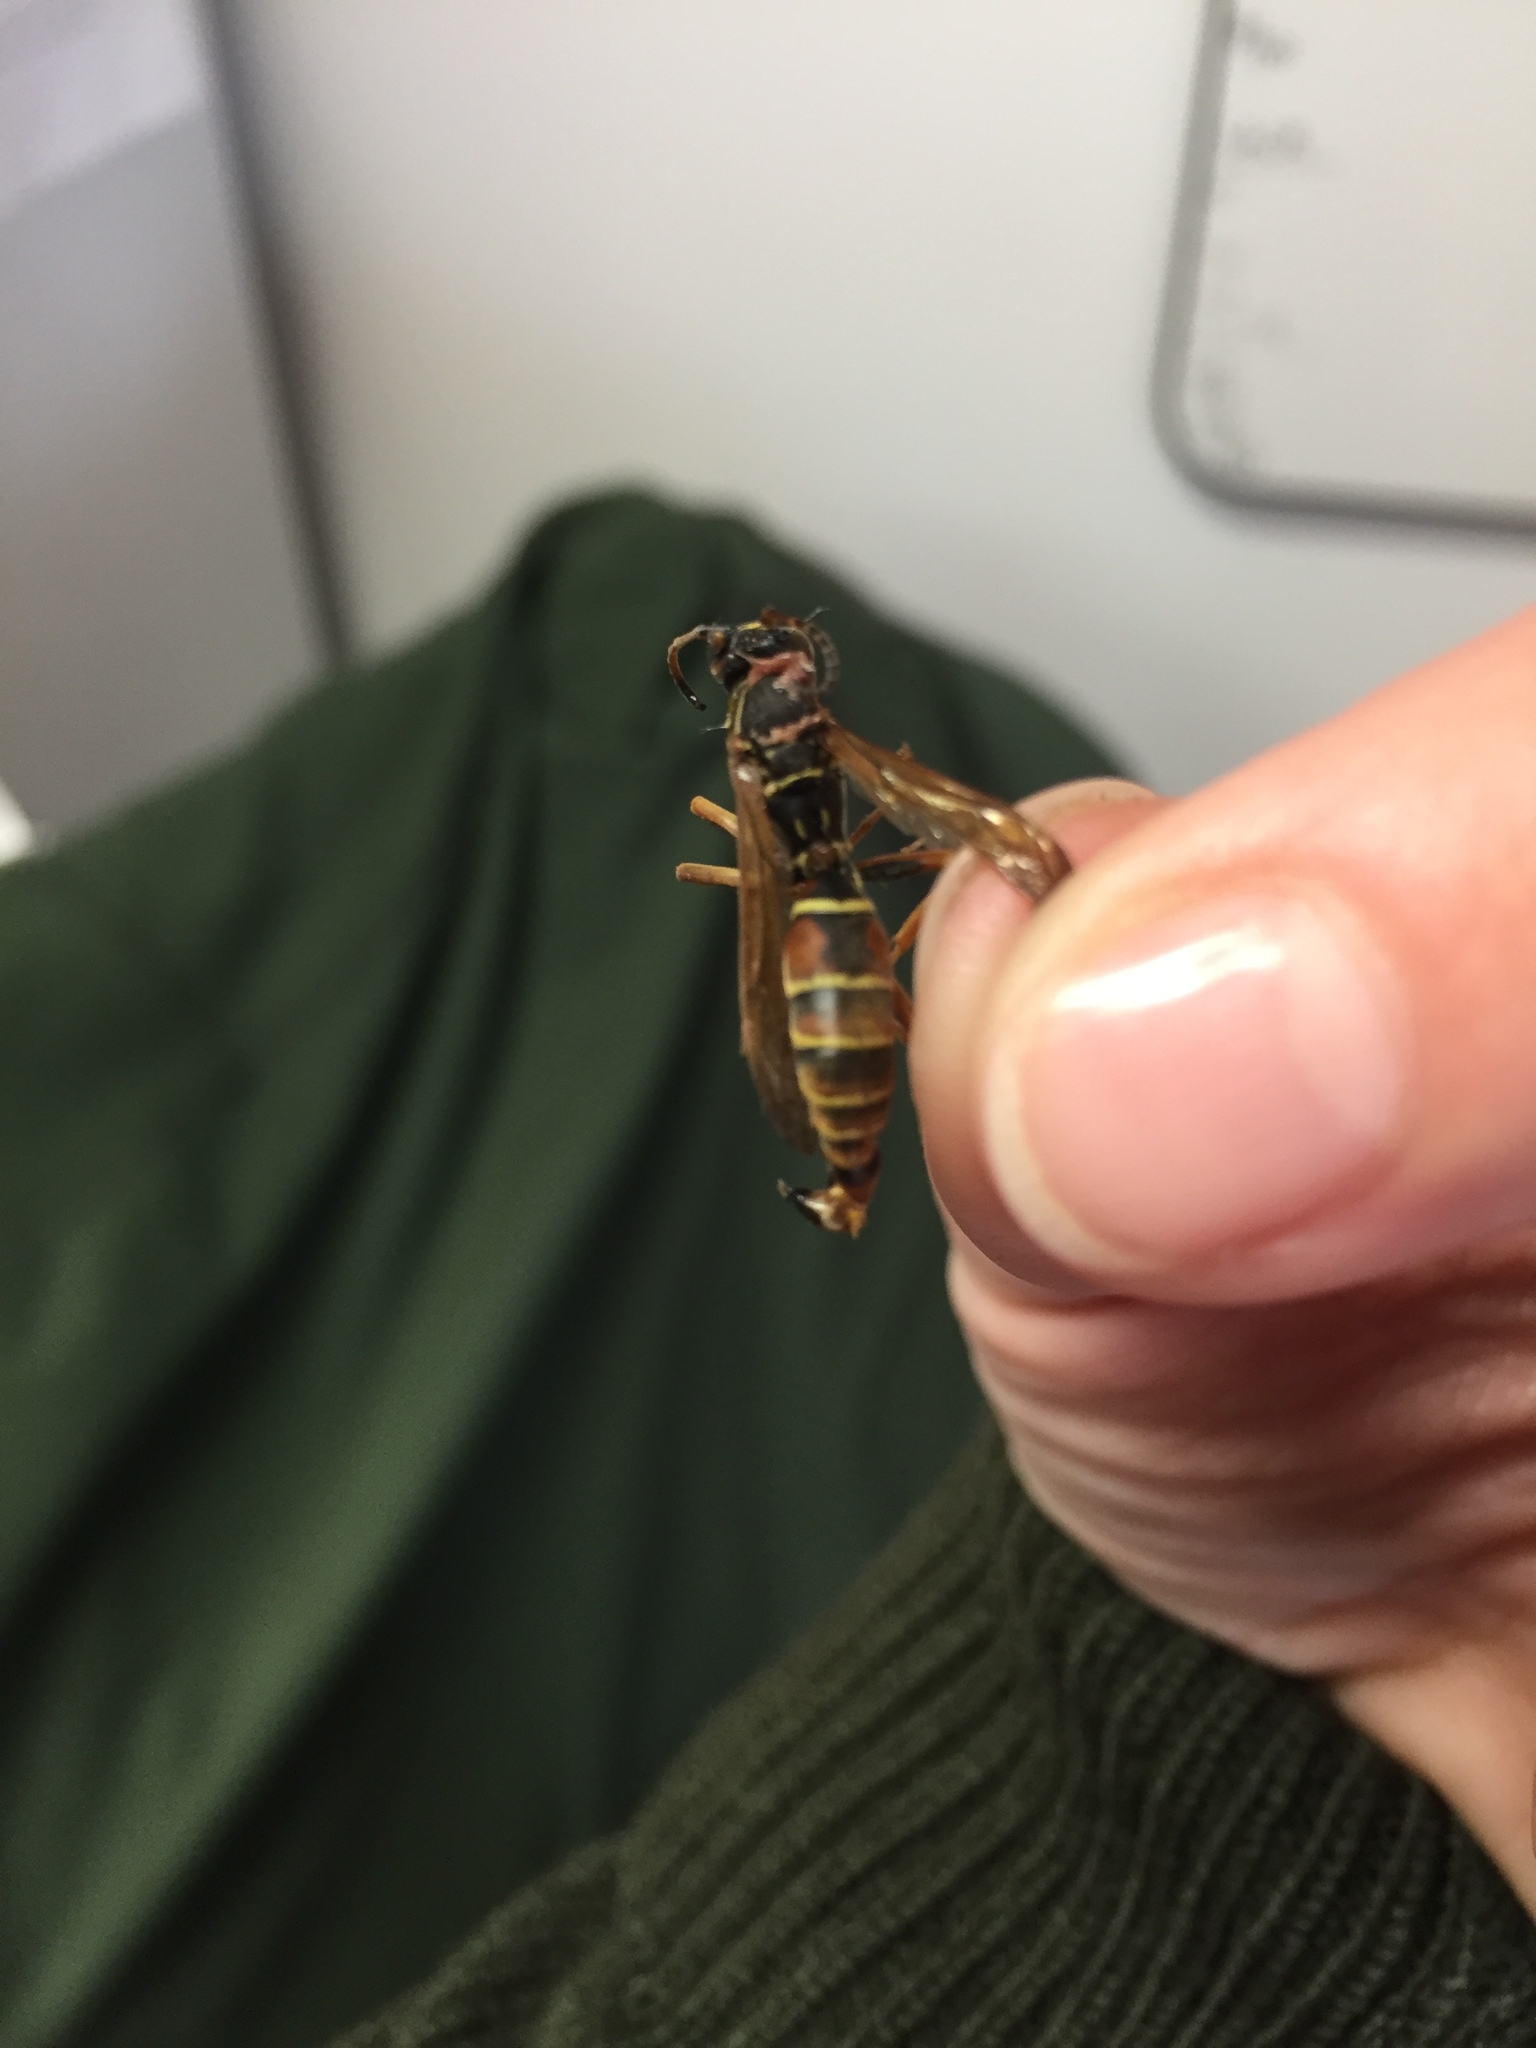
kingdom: Animalia
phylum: Arthropoda
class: Insecta
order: Hymenoptera
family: Eumenidae
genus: Polistes
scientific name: Polistes fuscatus
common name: Dark paper wasp
